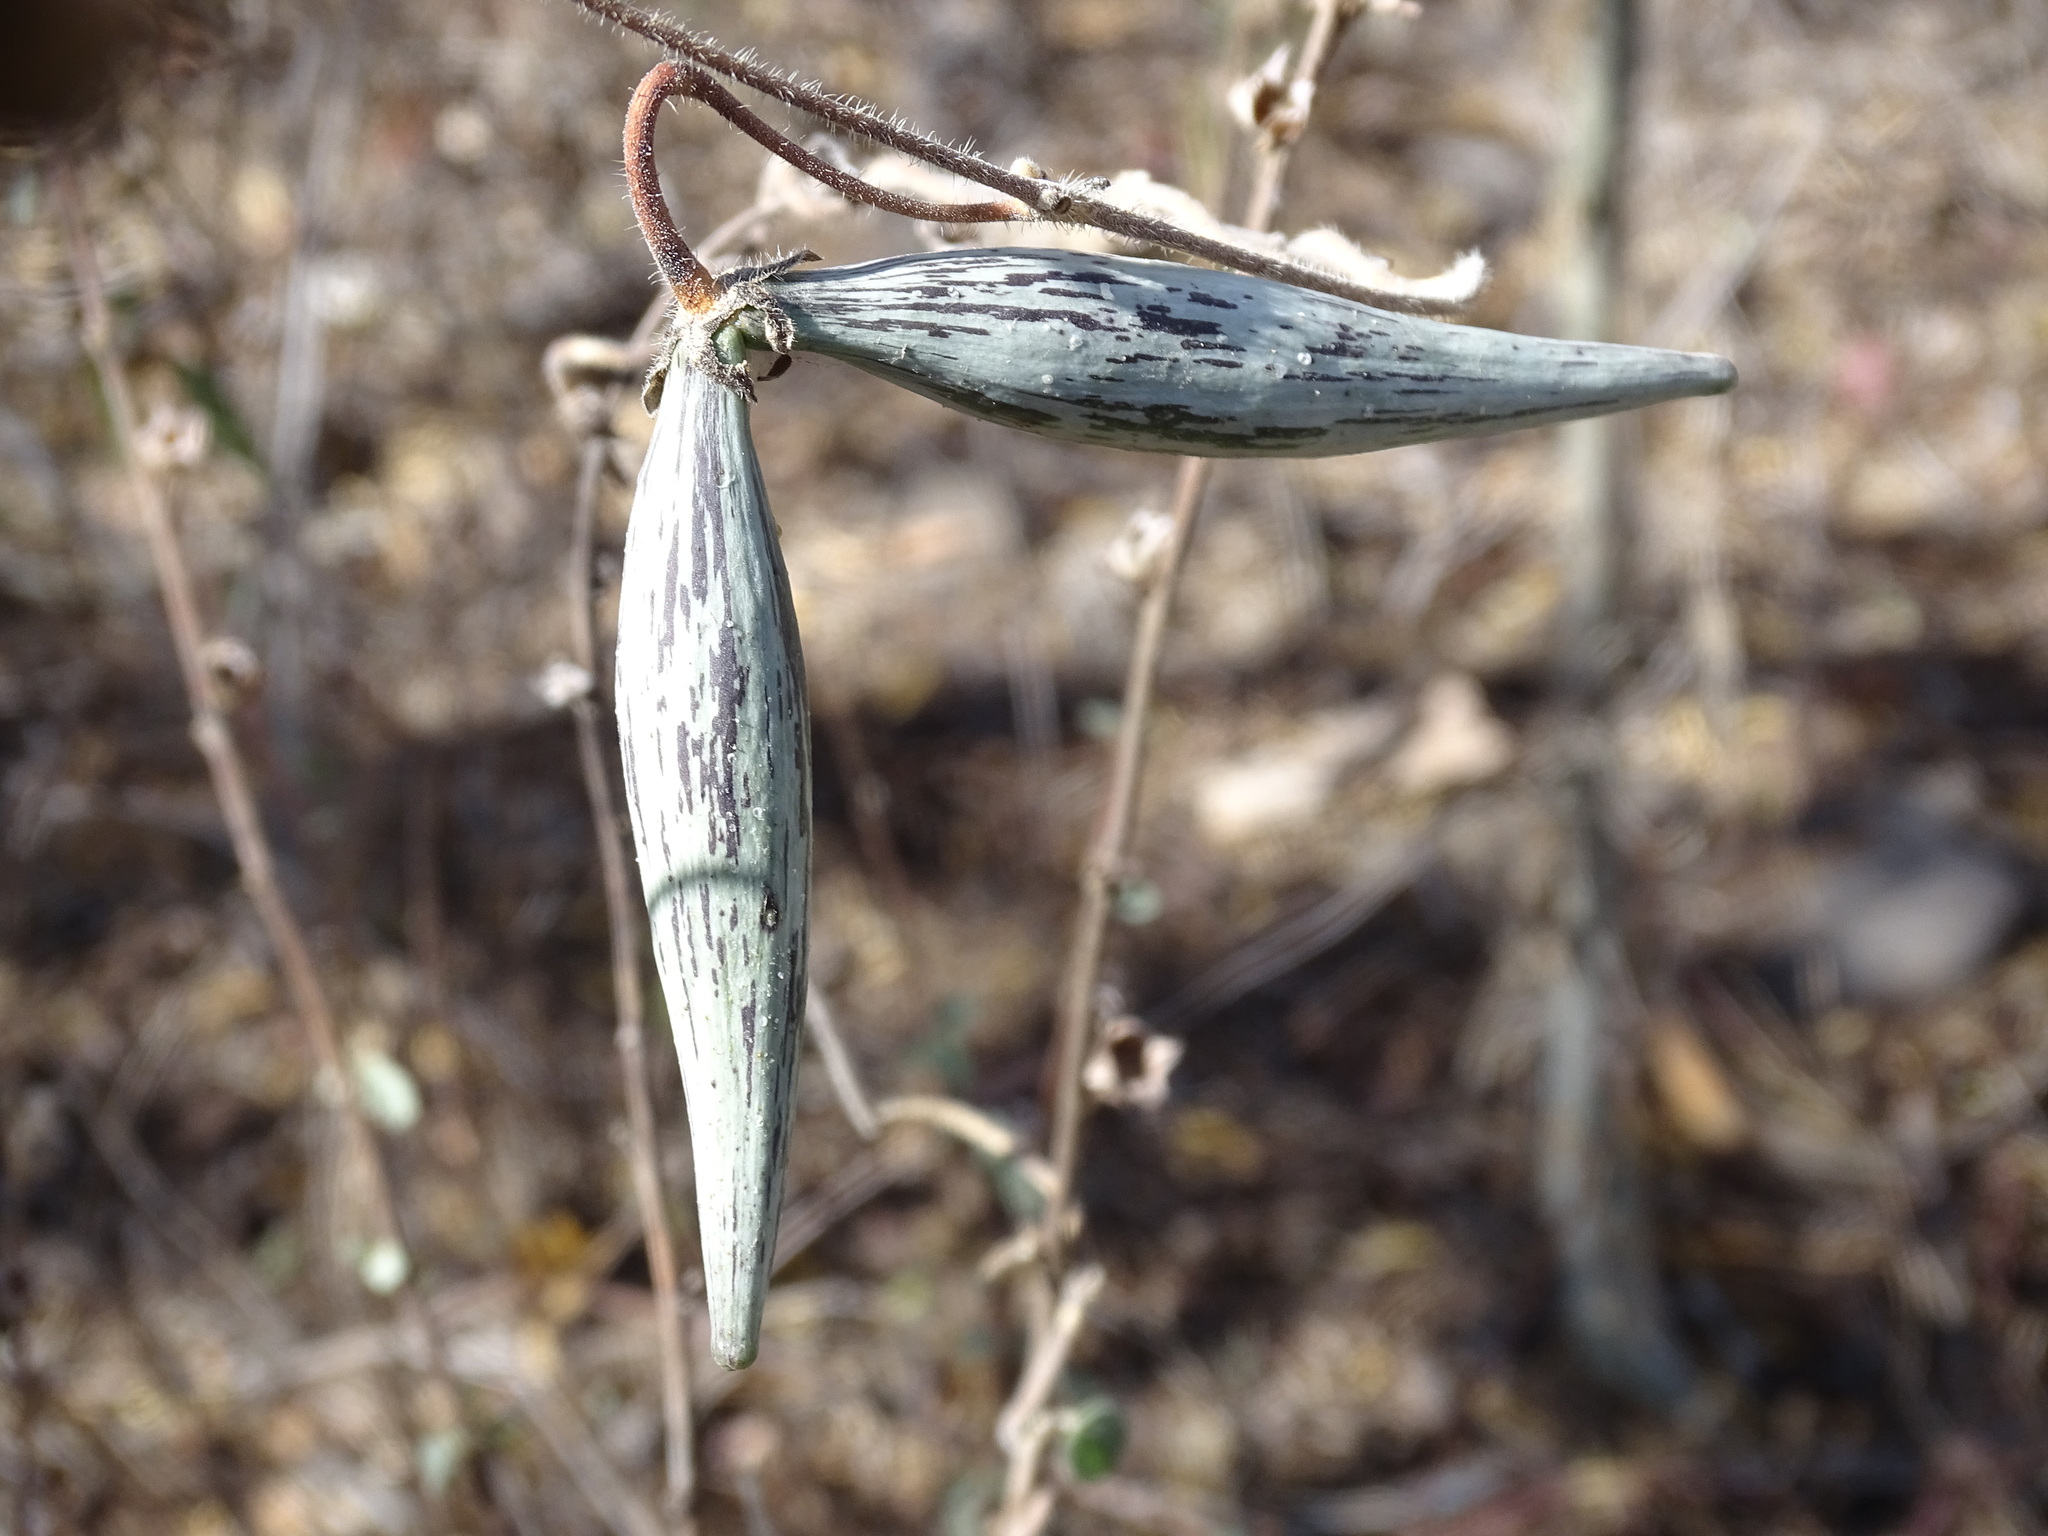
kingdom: Plantae
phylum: Tracheophyta
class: Magnoliopsida
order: Gentianales
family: Apocynaceae
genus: Matelea
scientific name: Matelea pilosa
